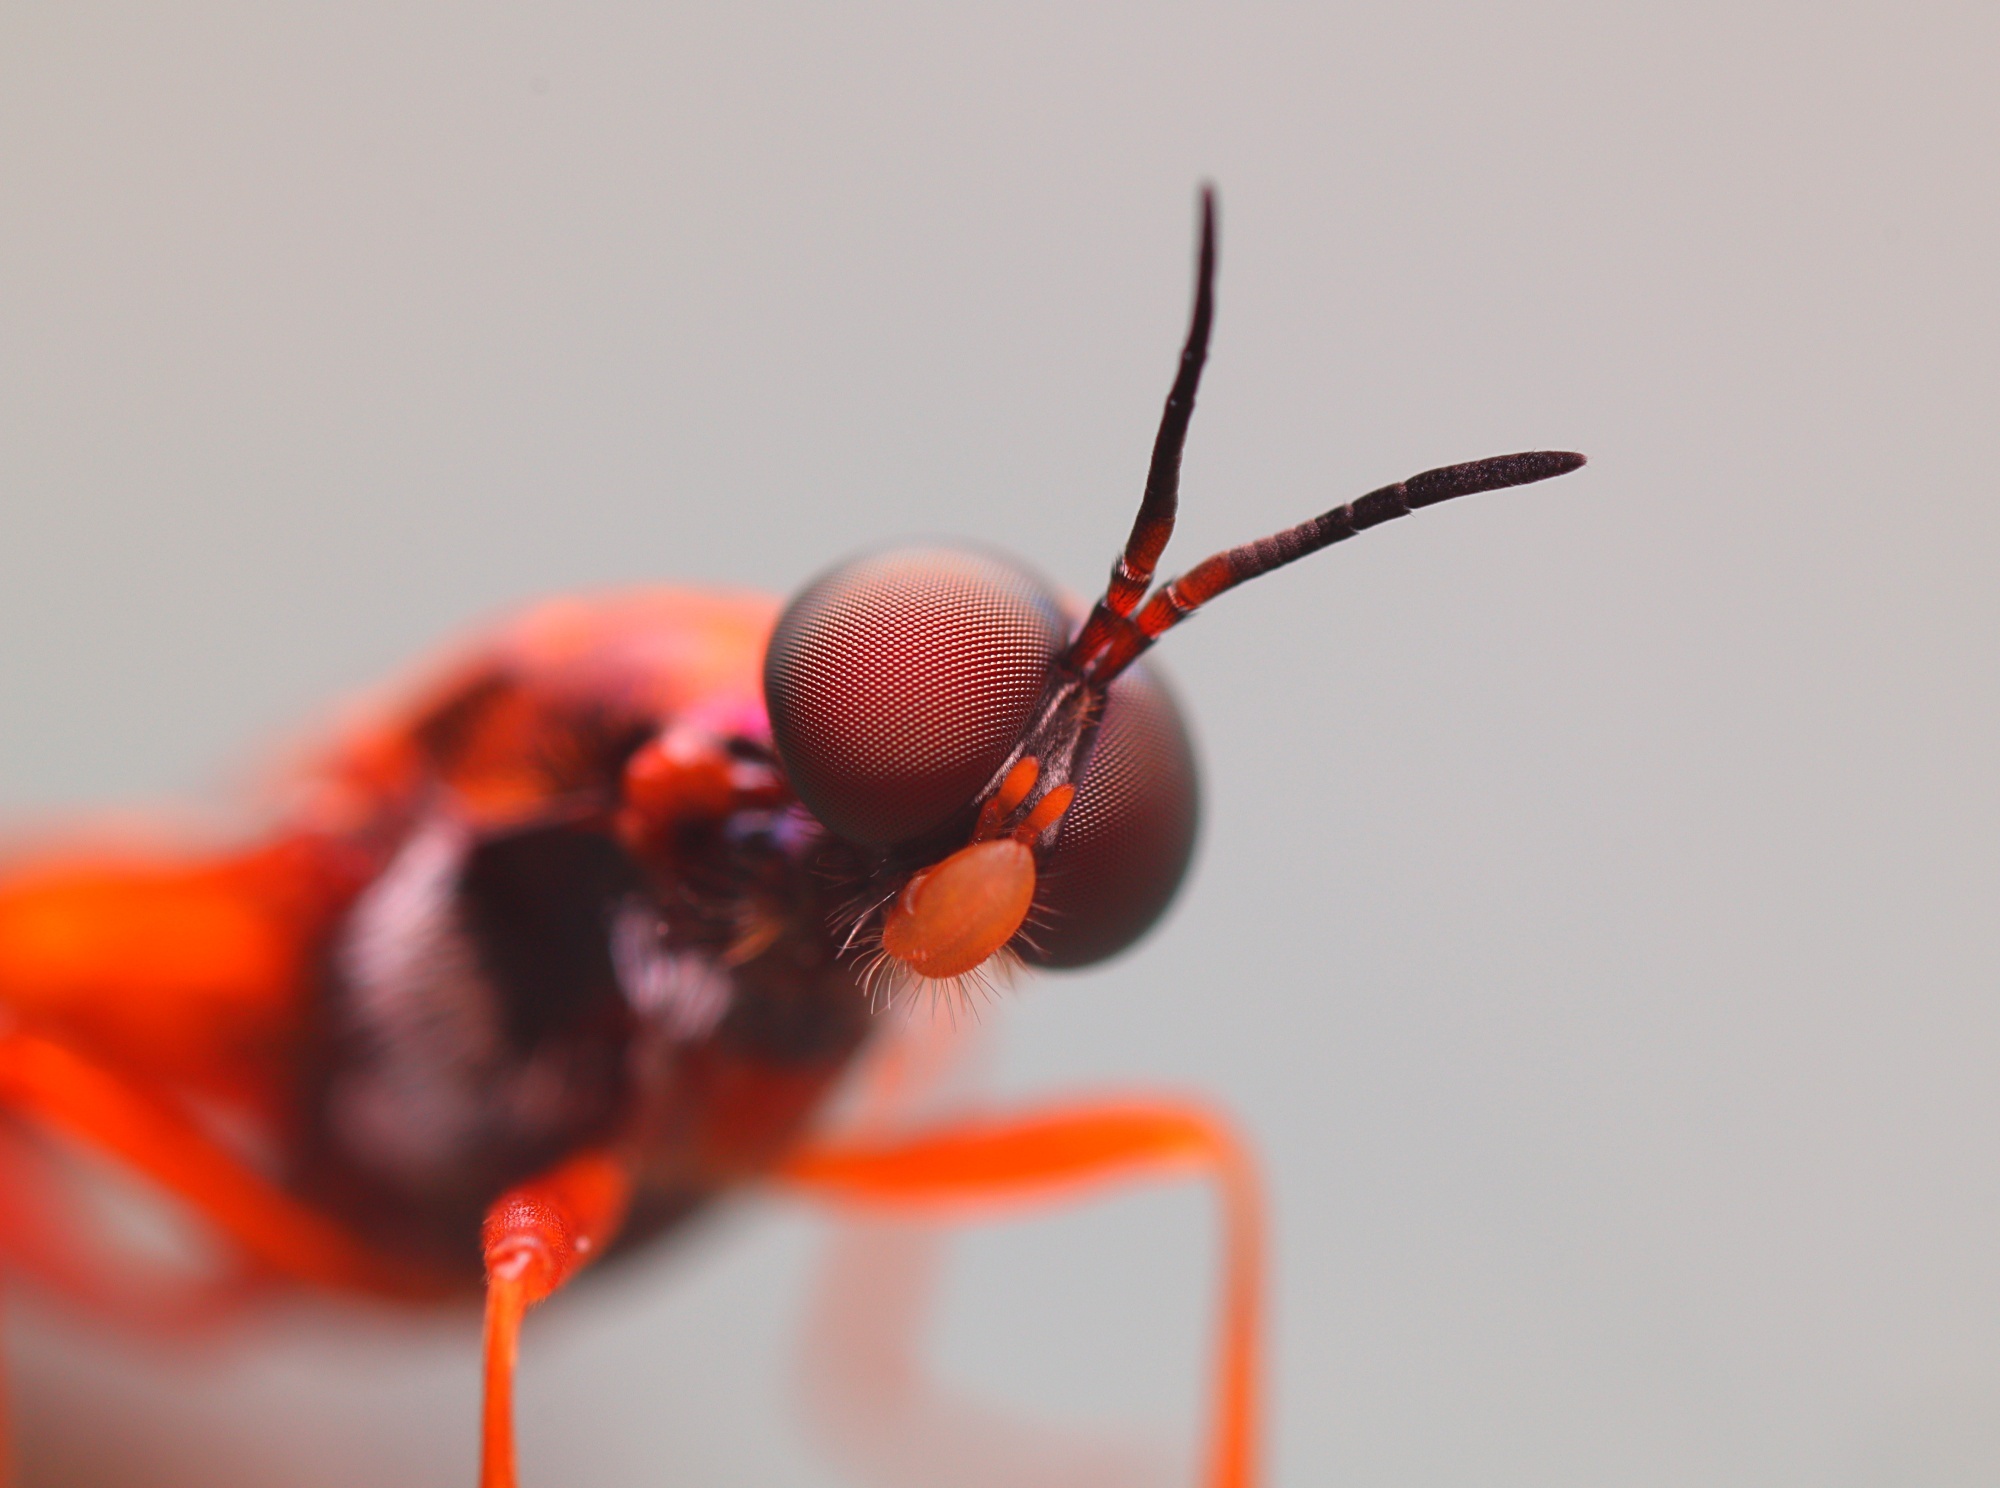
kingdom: Animalia
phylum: Arthropoda
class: Insecta
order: Diptera
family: Stratiomyidae
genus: Benhamyia
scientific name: Benhamyia apicalis
